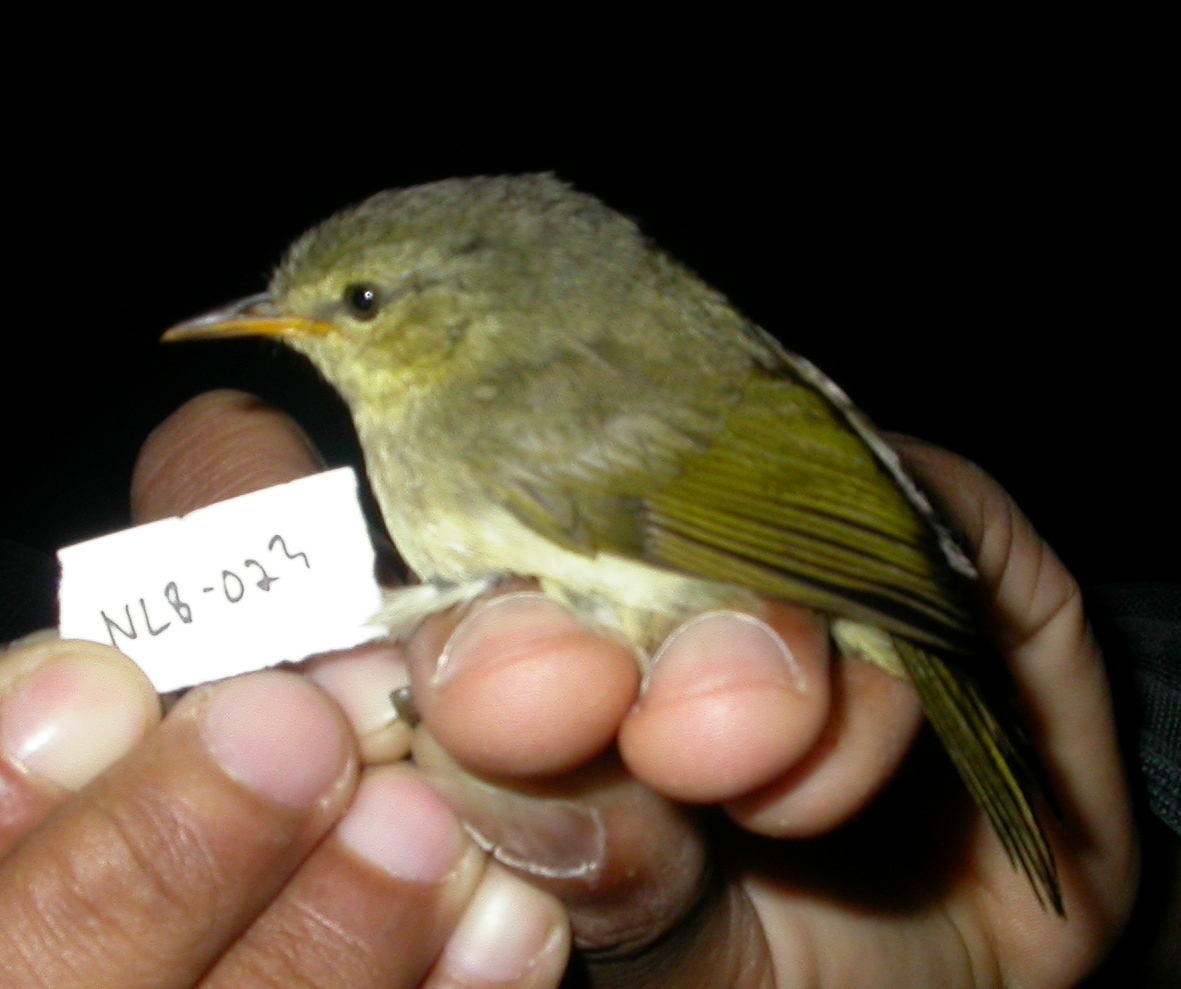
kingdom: Animalia
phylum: Chordata
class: Aves
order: Passeriformes
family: Bernieridae
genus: Cryptosylvicola
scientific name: Cryptosylvicola randrianasoloi
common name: Cryptic warbler
